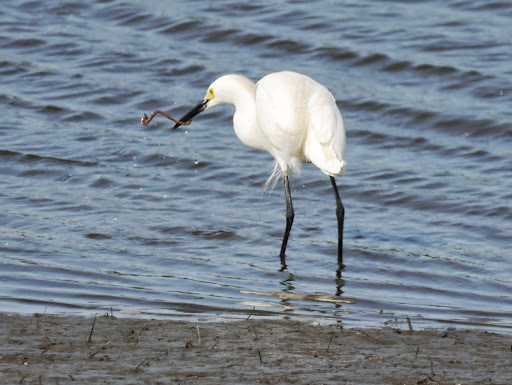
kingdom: Animalia
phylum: Chordata
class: Aves
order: Pelecaniformes
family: Ardeidae
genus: Egretta
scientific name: Egretta thula
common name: Snowy egret
